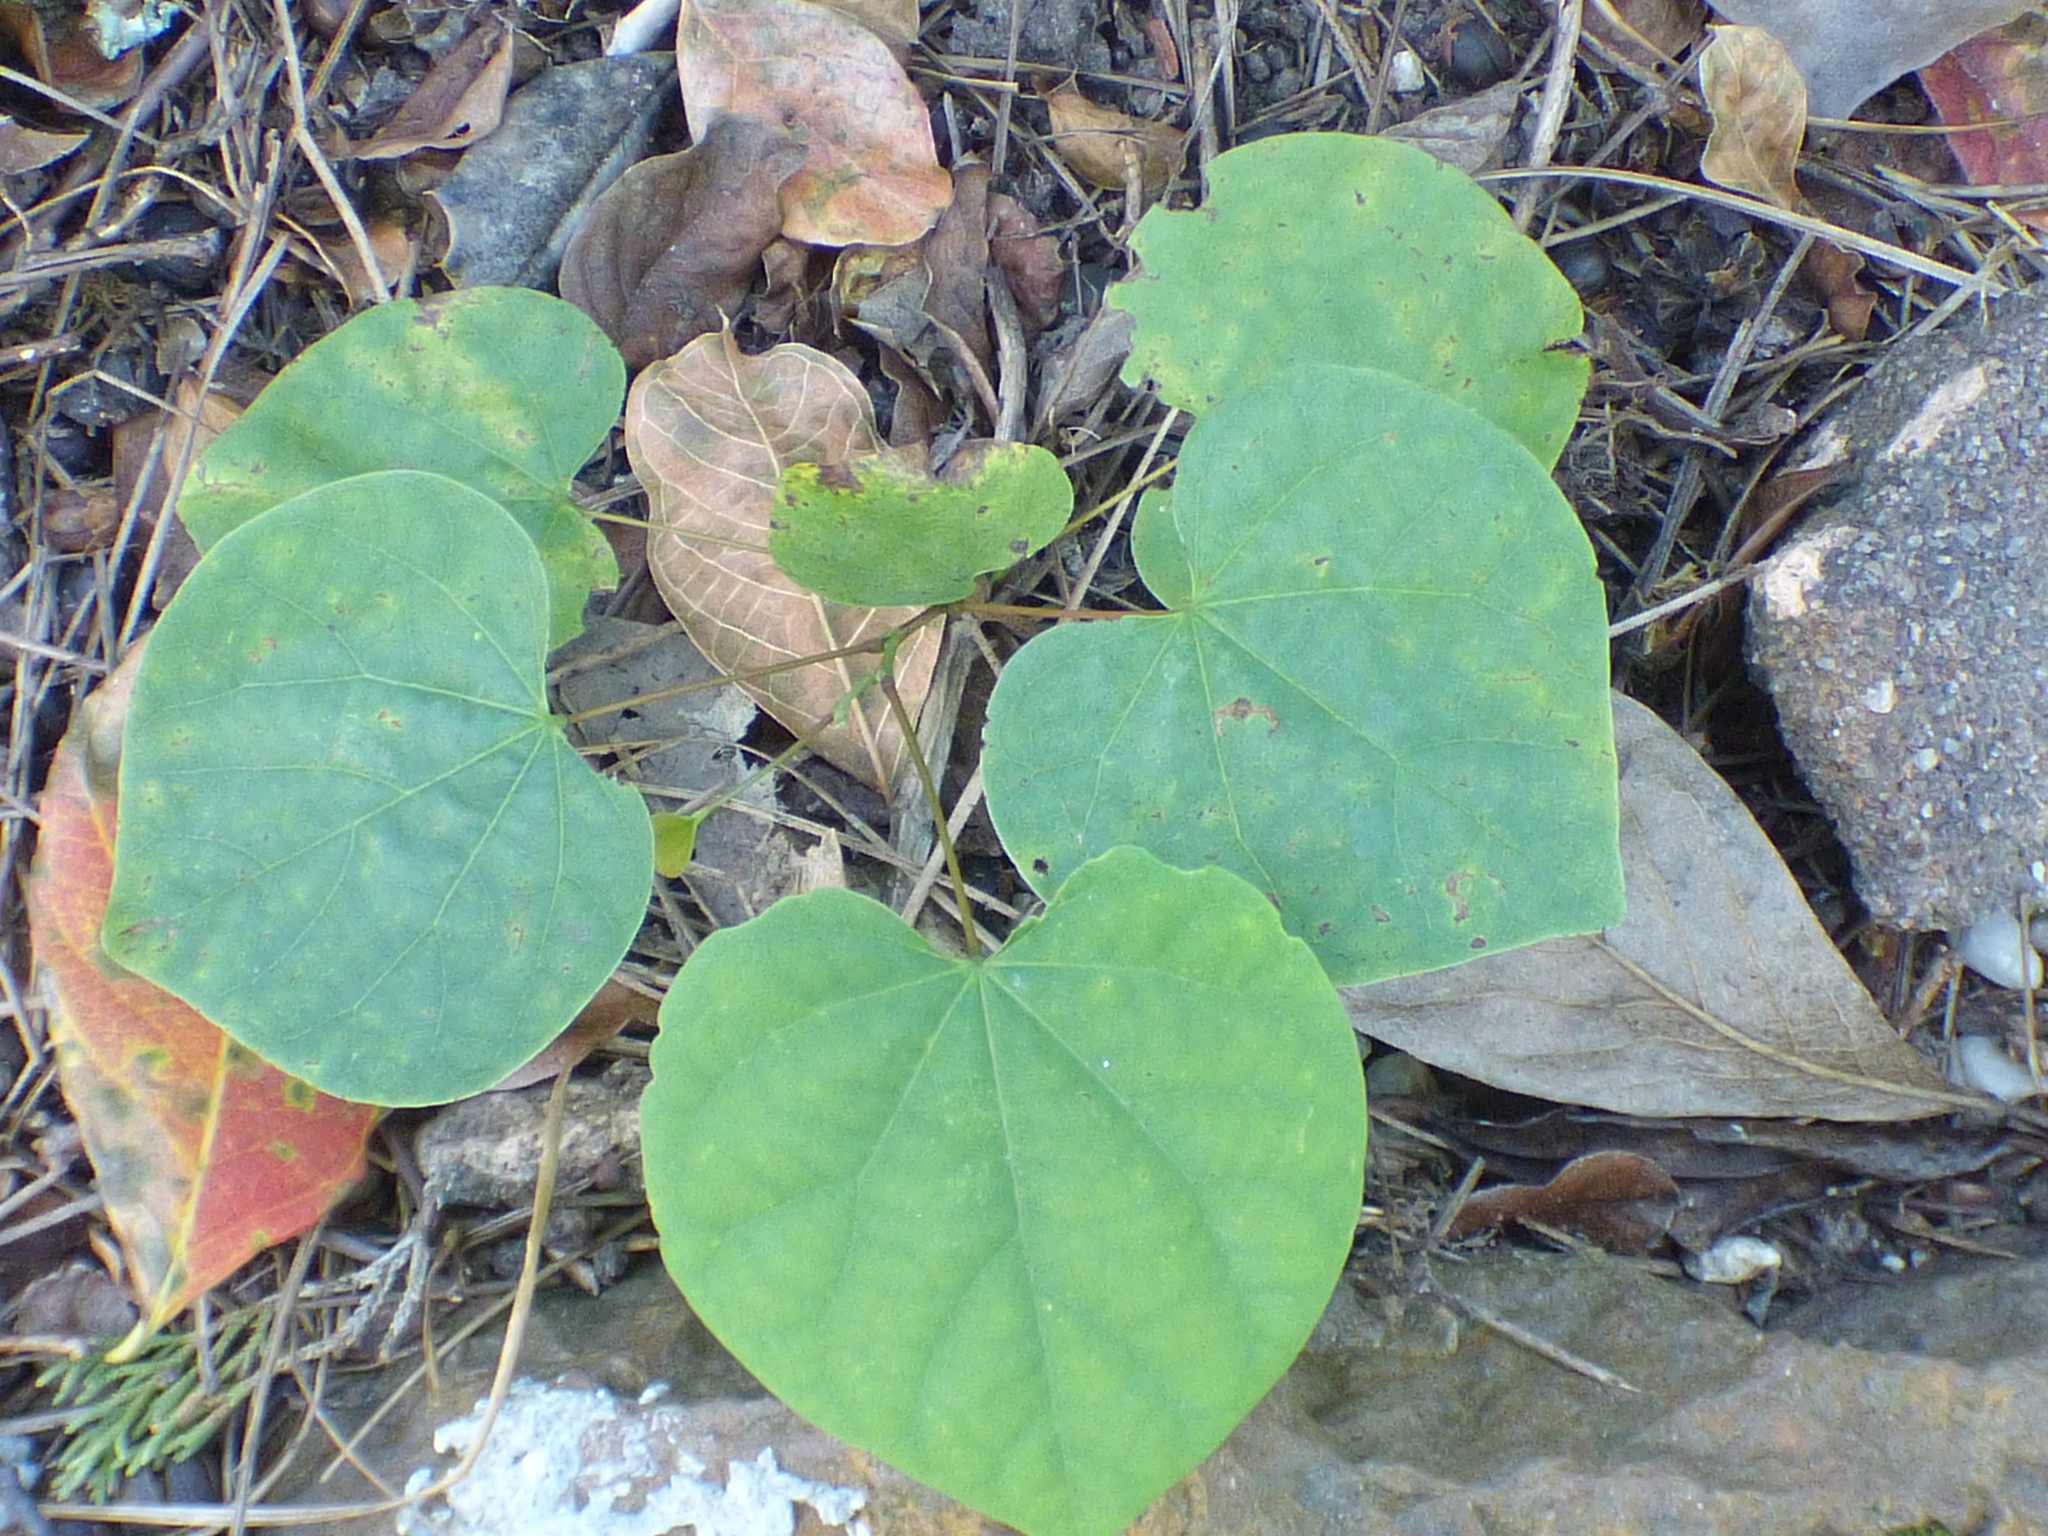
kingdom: Plantae
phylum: Tracheophyta
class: Magnoliopsida
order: Fabales
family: Fabaceae
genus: Cercis
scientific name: Cercis canadensis
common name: Eastern redbud
